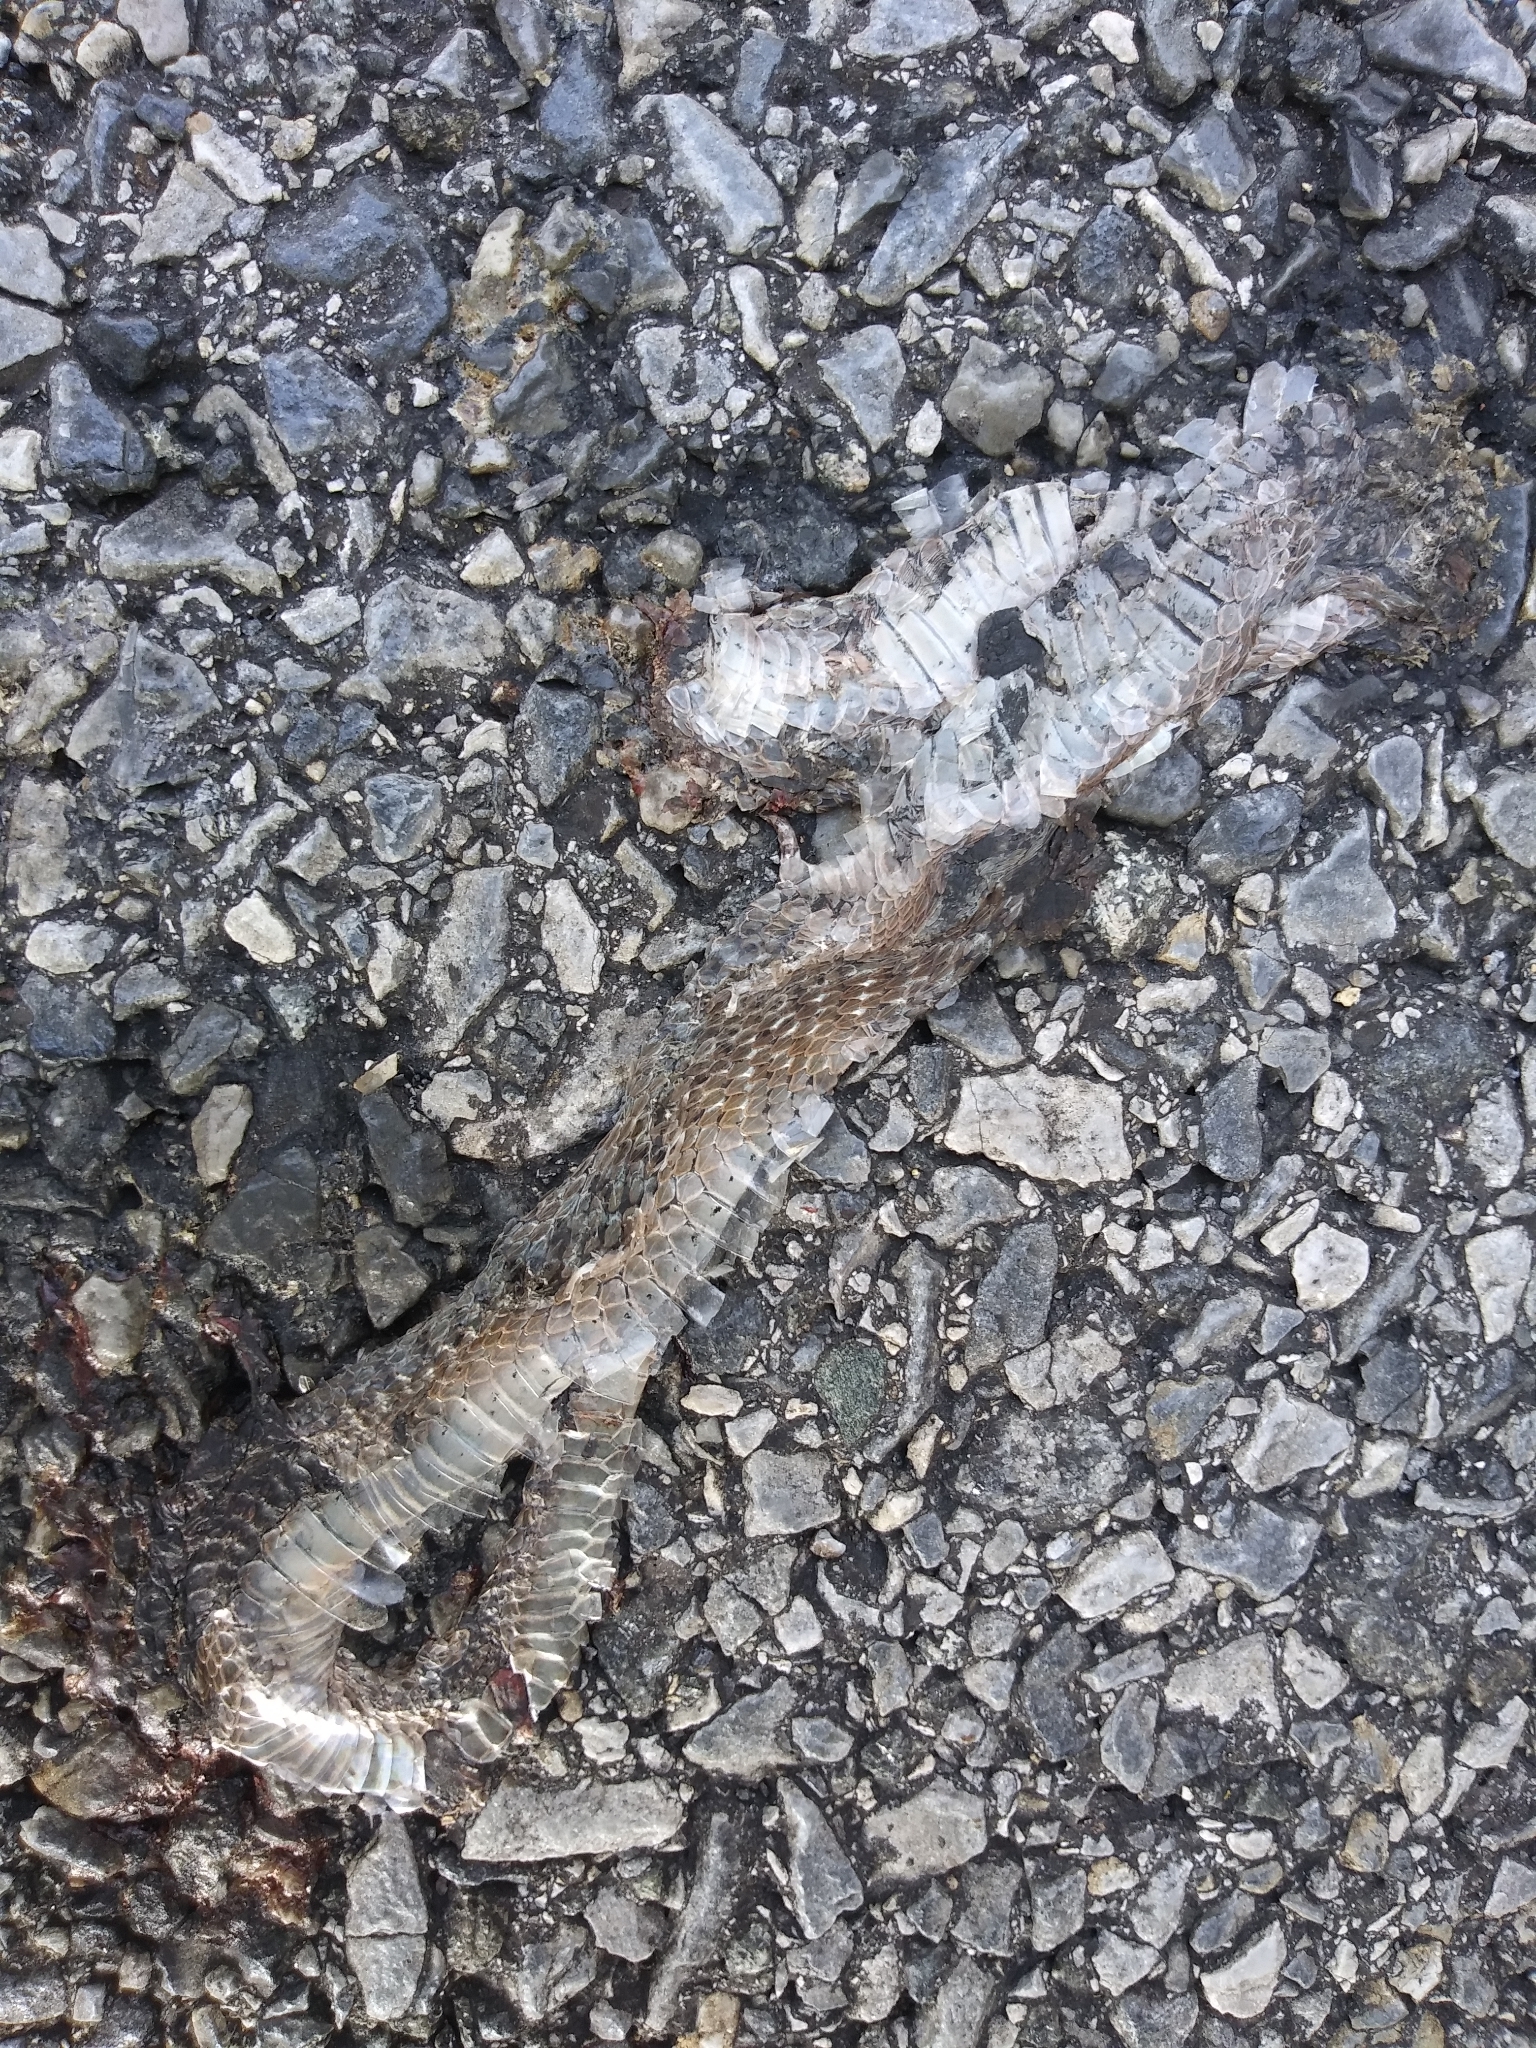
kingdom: Animalia
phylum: Chordata
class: Squamata
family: Colubridae
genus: Storeria
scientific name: Storeria dekayi
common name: (dekay’s) brown snake
